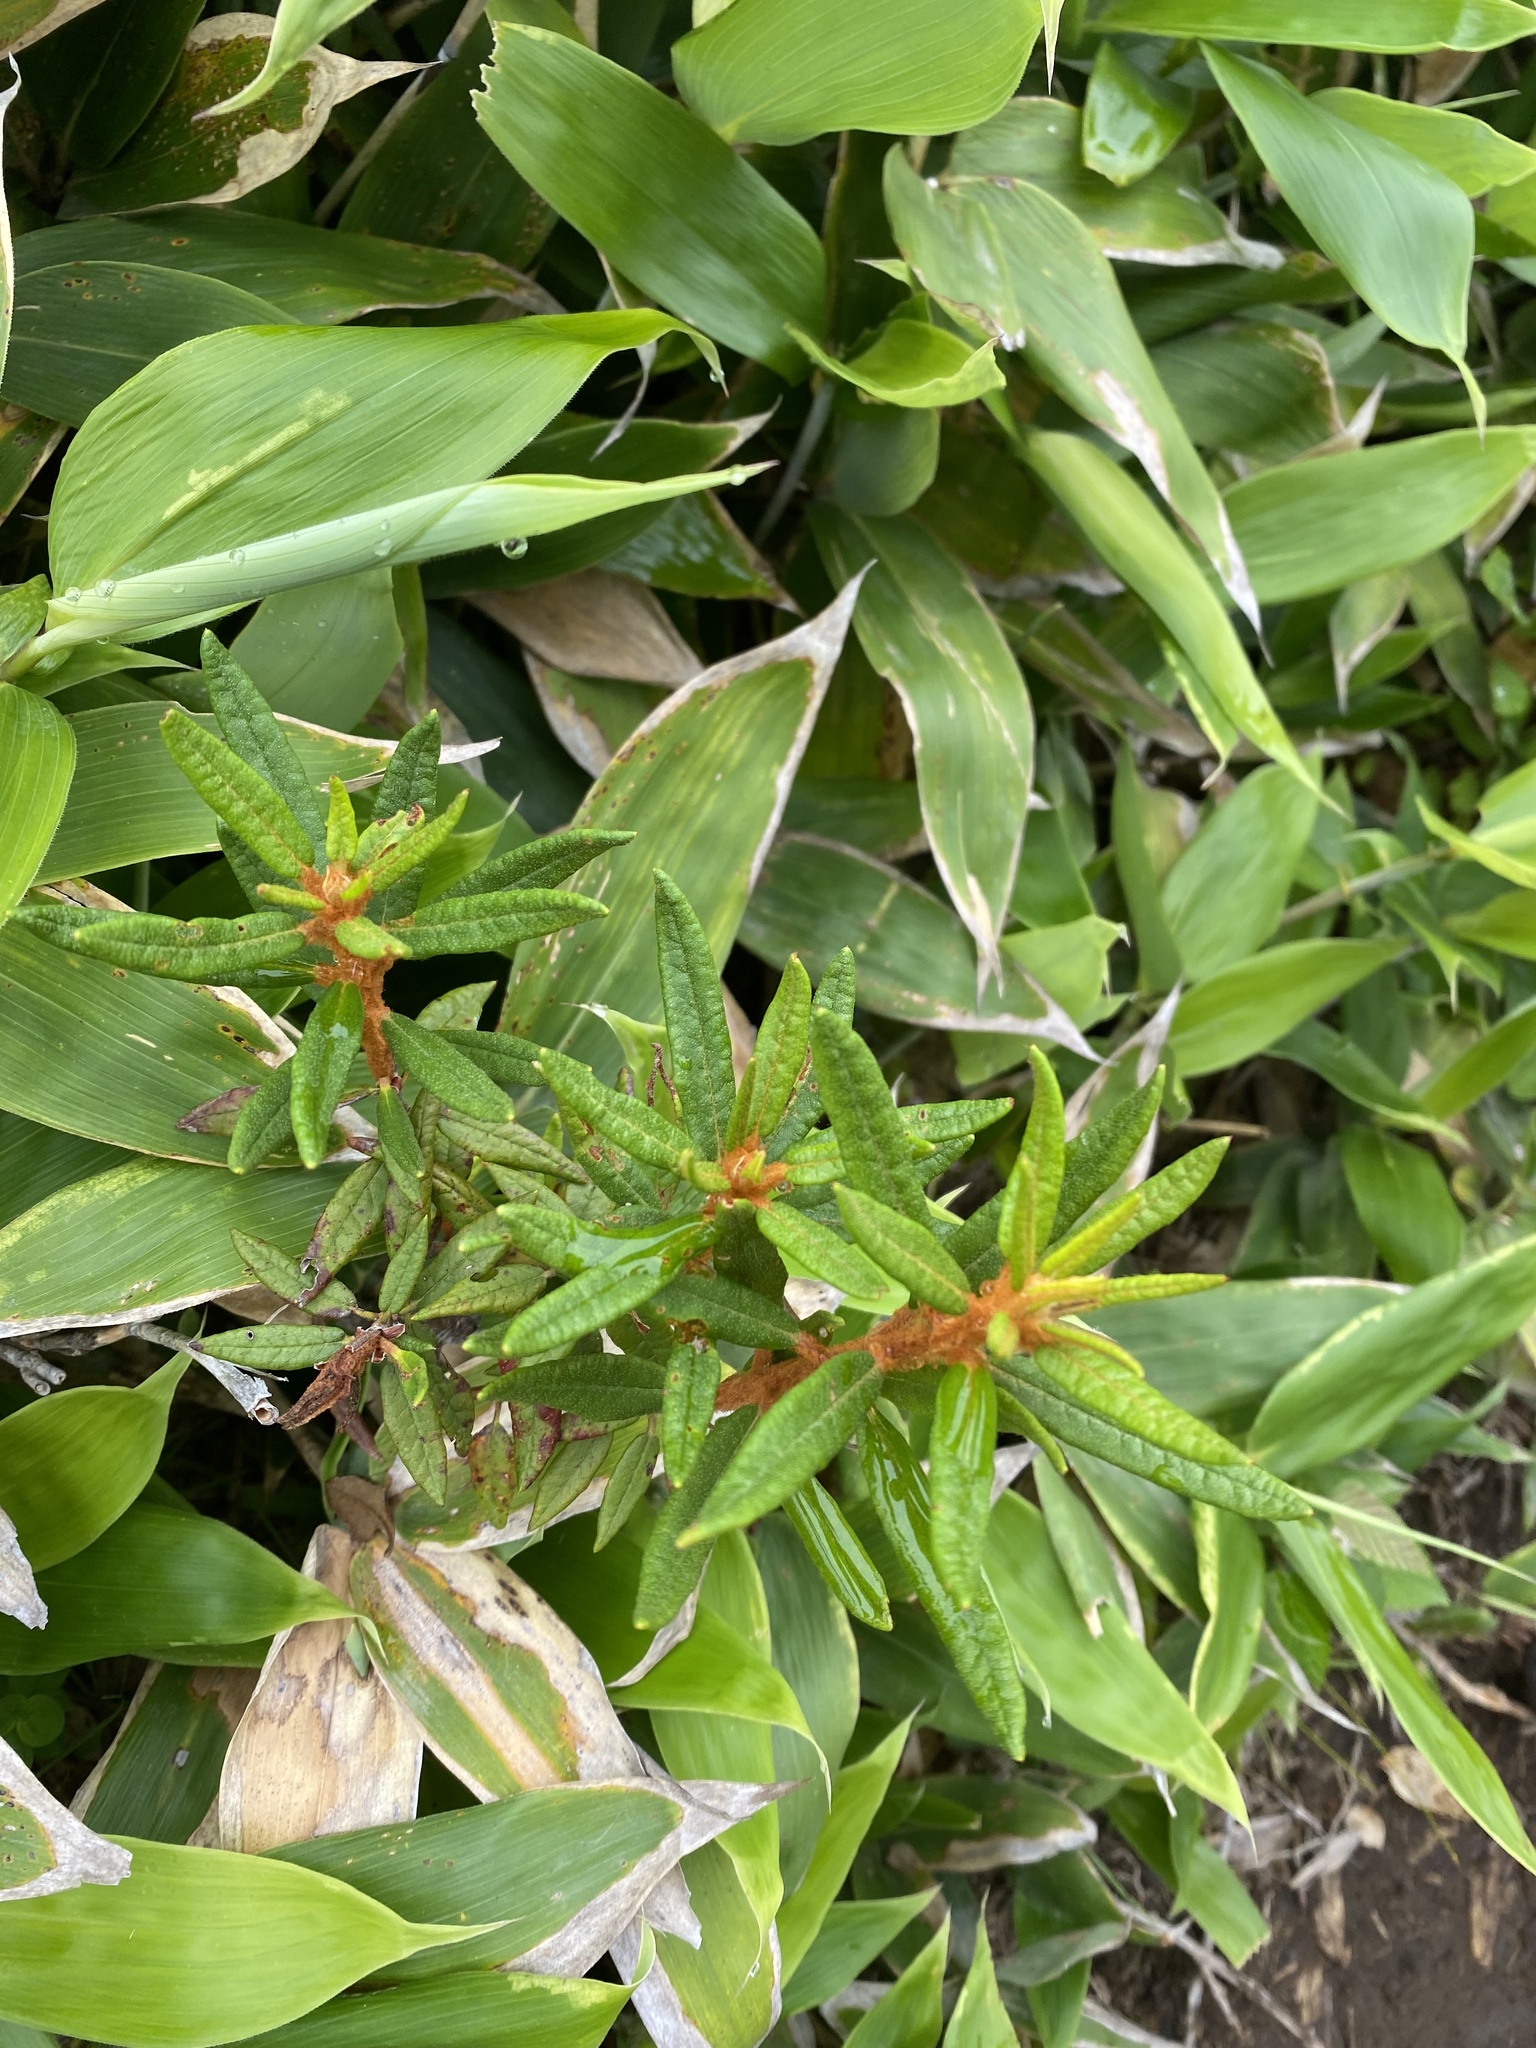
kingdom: Plantae
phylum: Tracheophyta
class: Magnoliopsida
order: Ericales
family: Ericaceae
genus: Rhododendron
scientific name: Rhododendron tomentosum
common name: Marsh labrador tea
